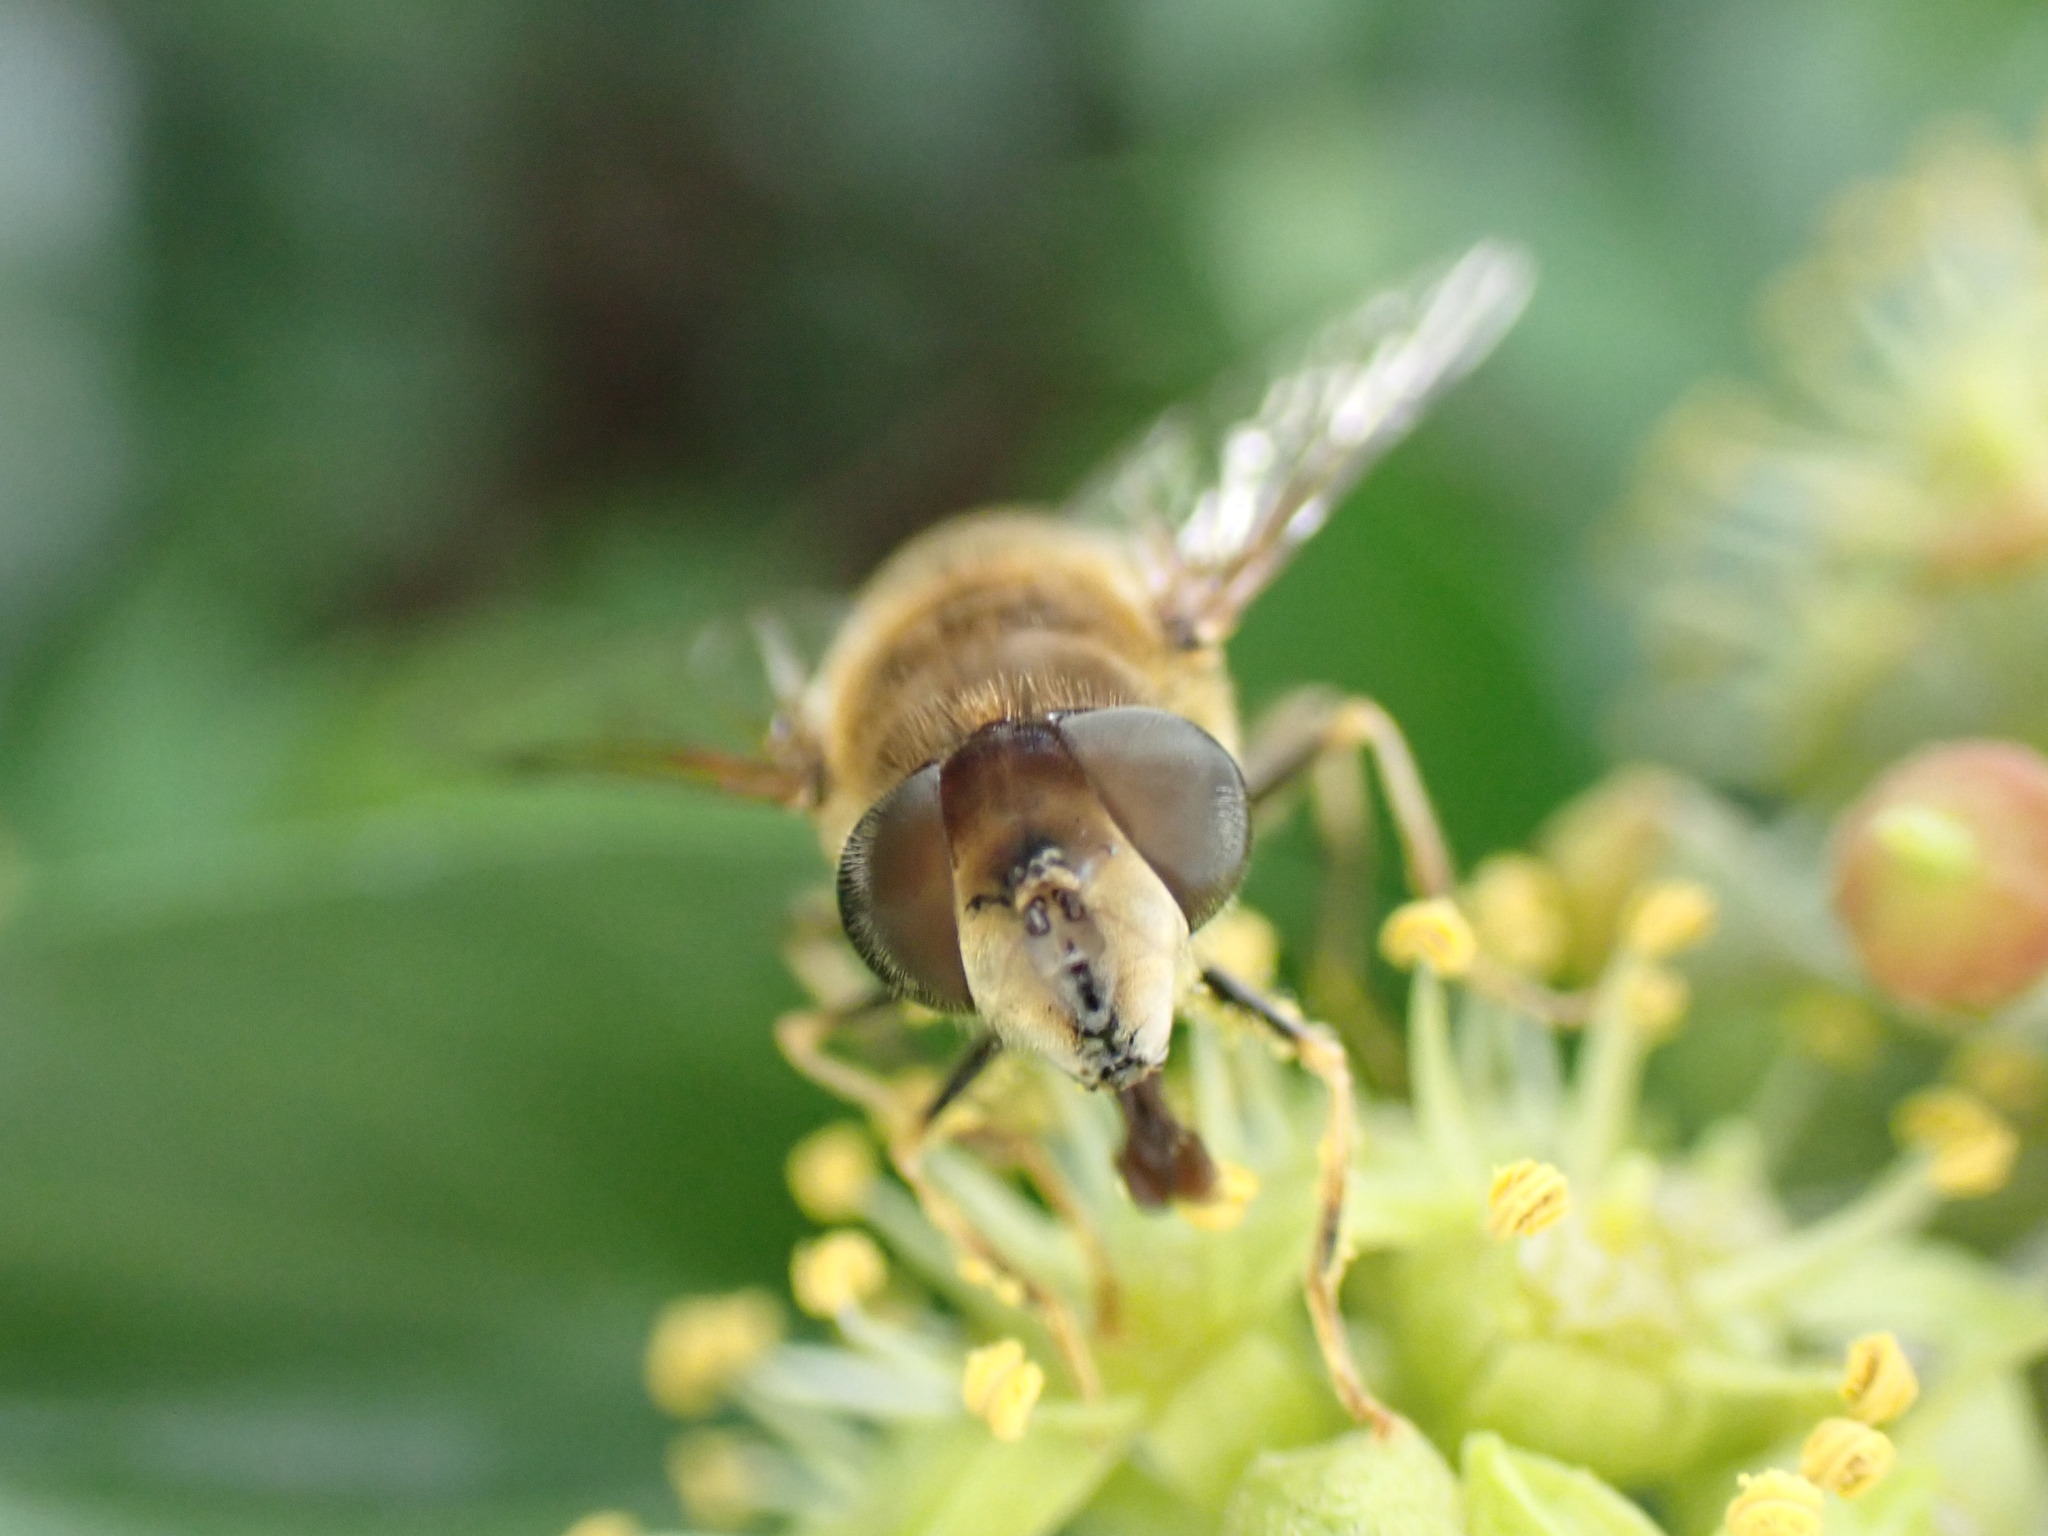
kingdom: Animalia
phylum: Arthropoda
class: Insecta
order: Diptera
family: Syrphidae
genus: Eristalis
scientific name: Eristalis pertinax
